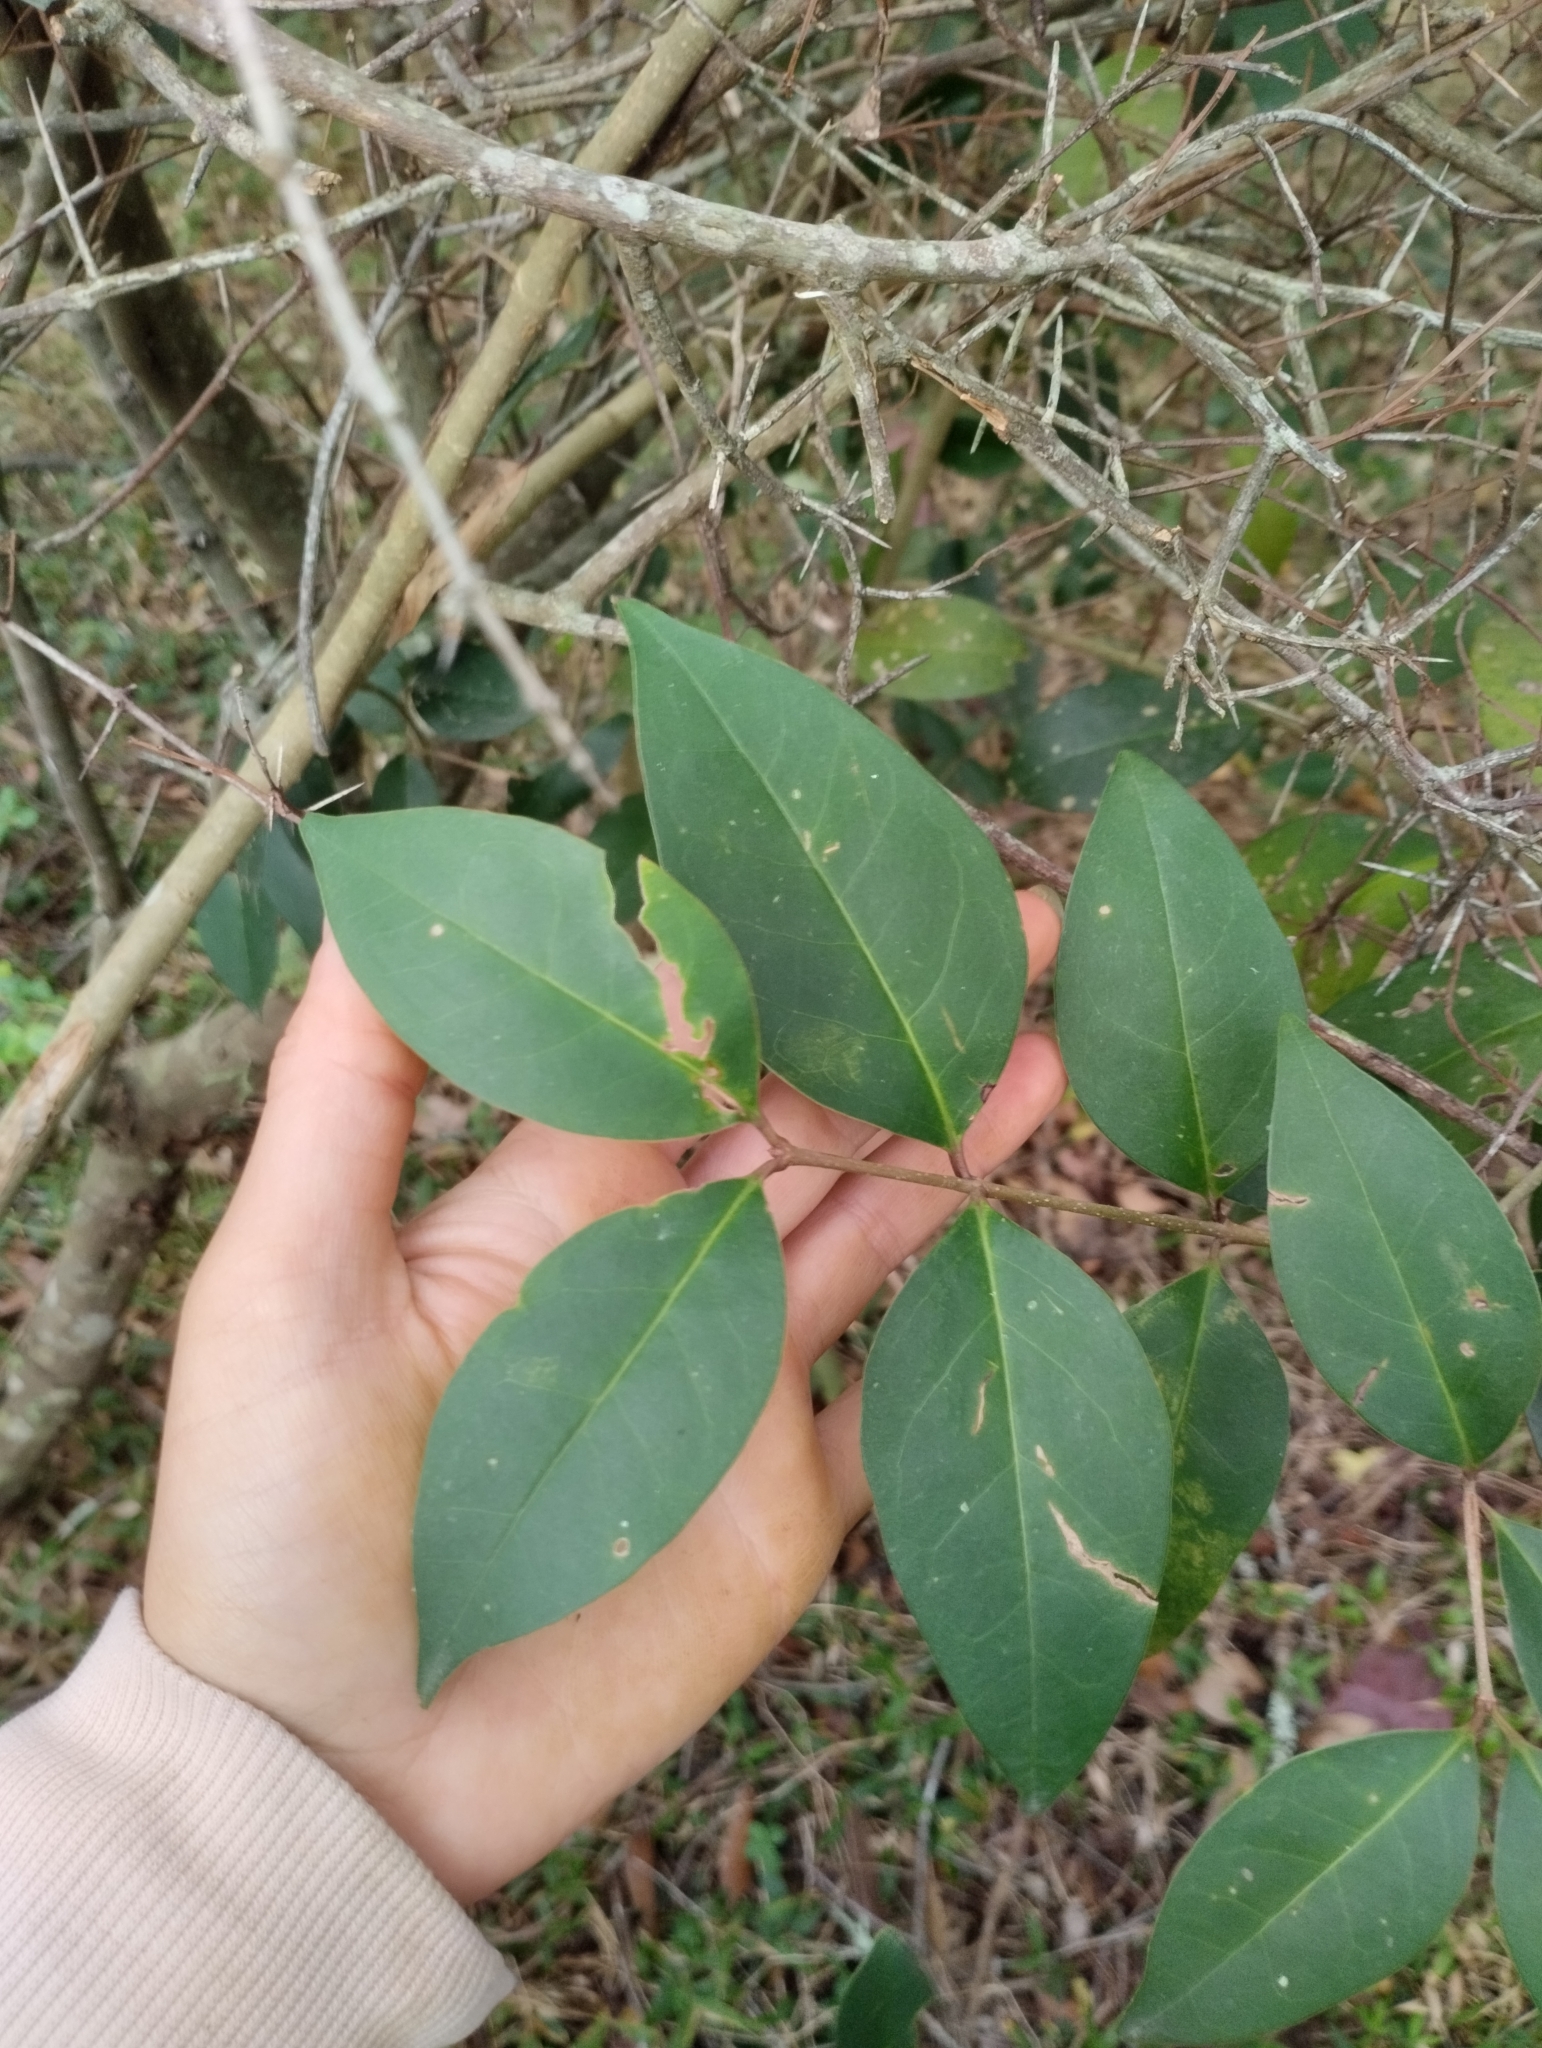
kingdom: Plantae
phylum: Tracheophyta
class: Magnoliopsida
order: Lamiales
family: Oleaceae
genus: Ligustrum
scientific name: Ligustrum lucidum
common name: Glossy privet
